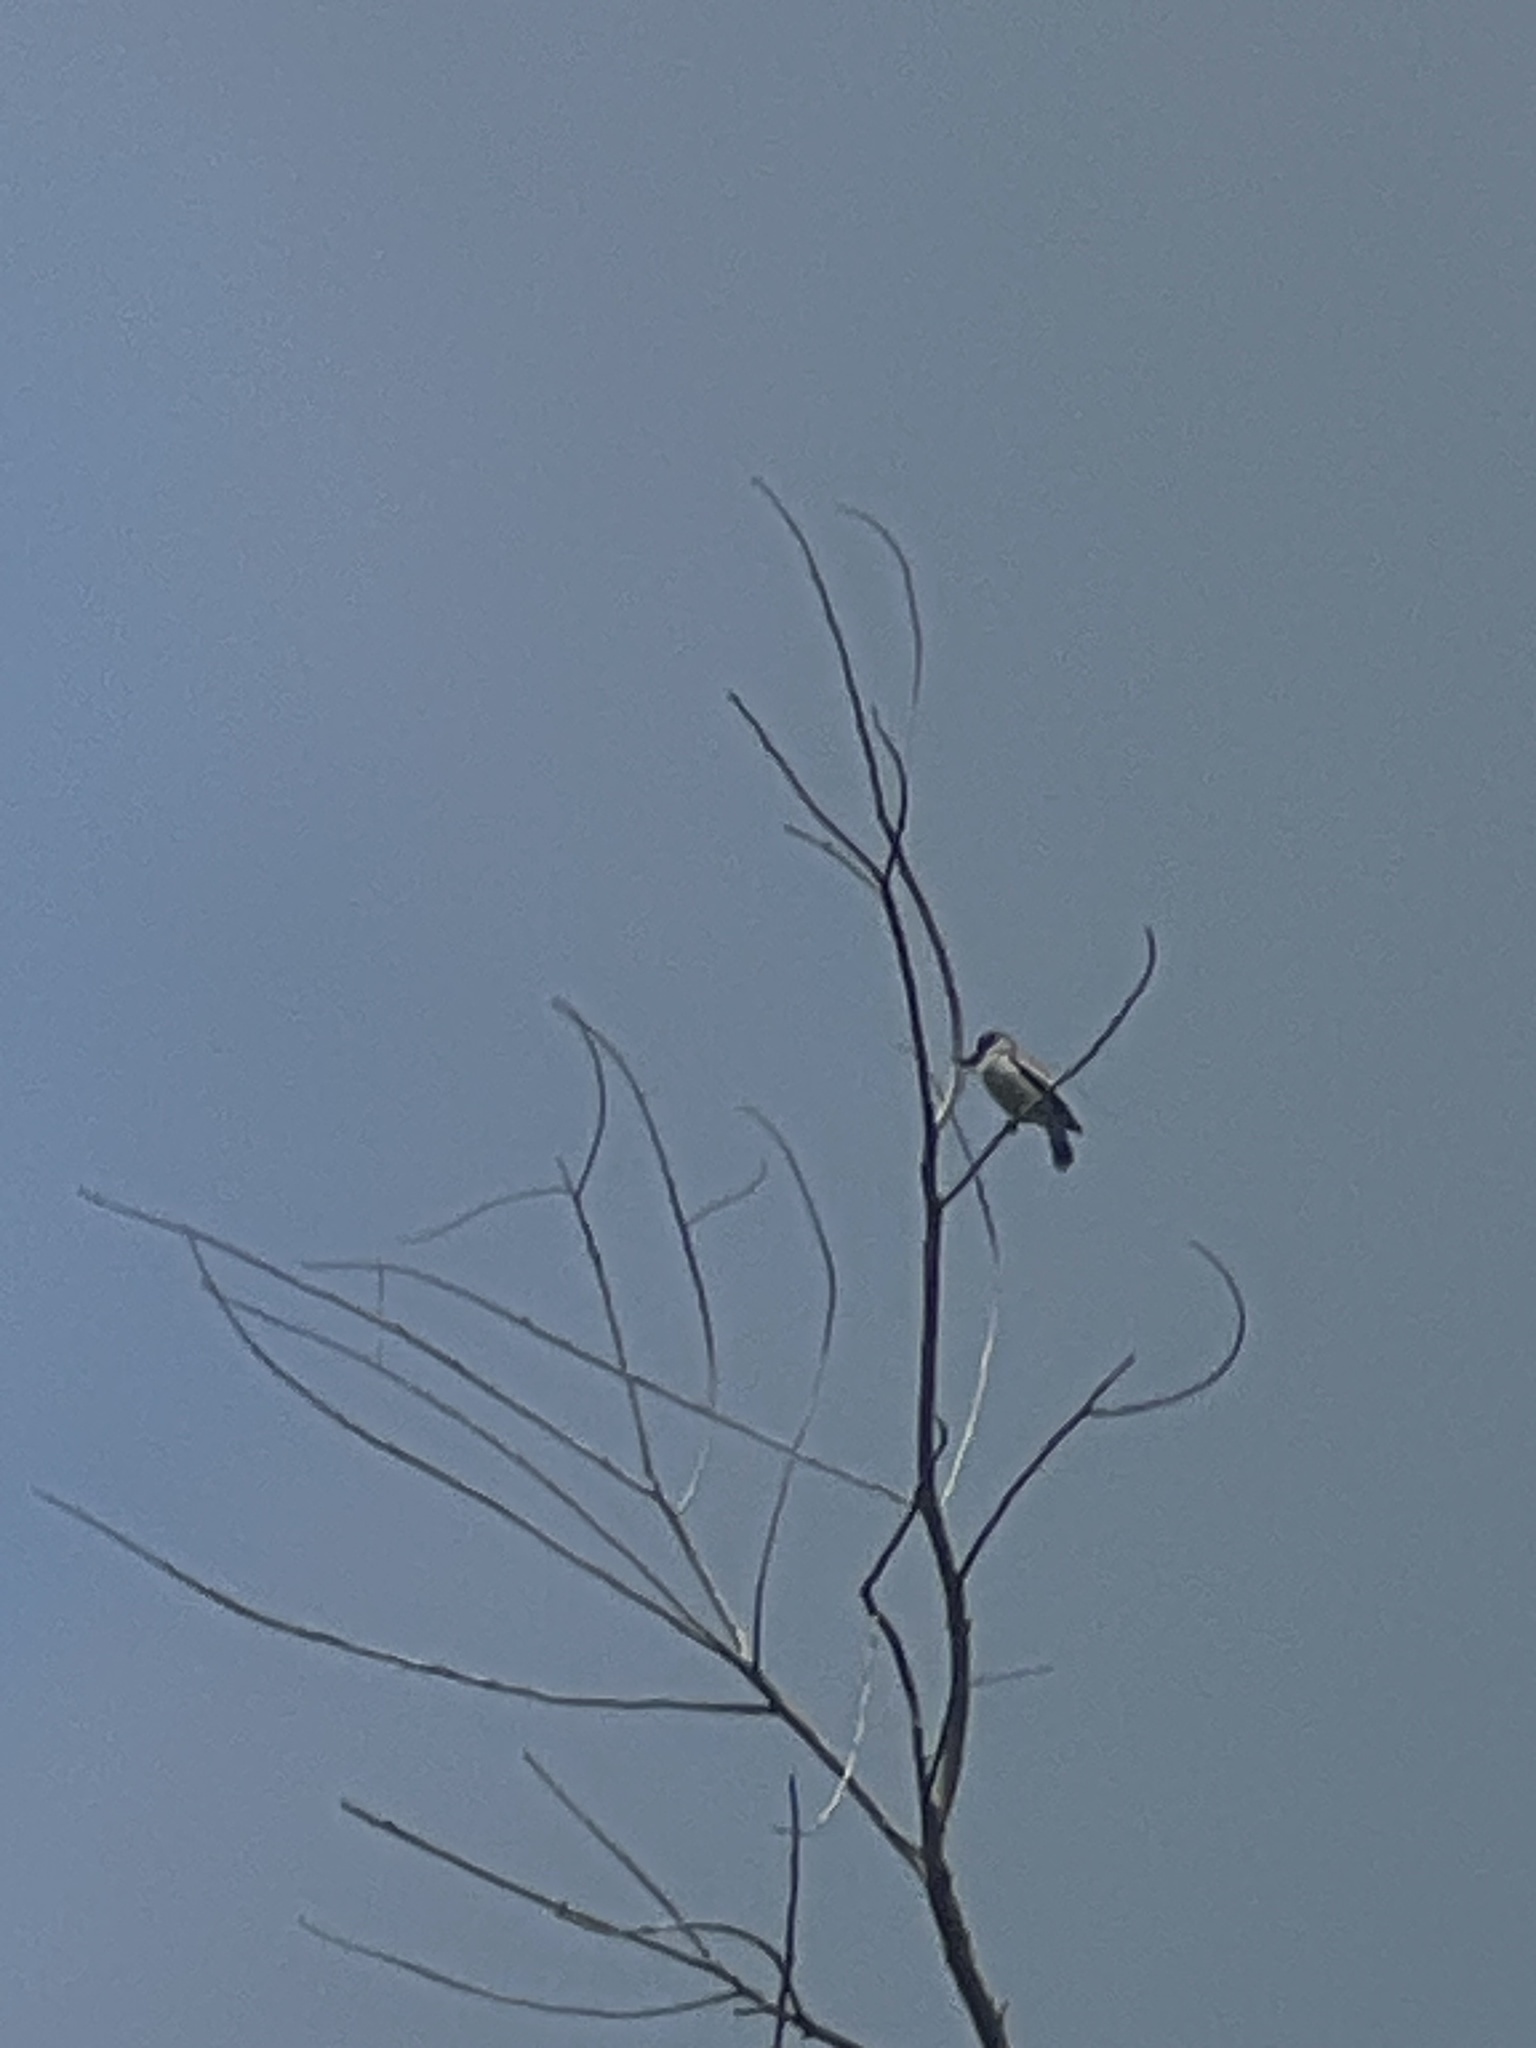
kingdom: Animalia
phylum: Chordata
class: Aves
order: Passeriformes
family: Cotingidae
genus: Tityra
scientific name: Tityra semifasciata
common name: Masked tityra
